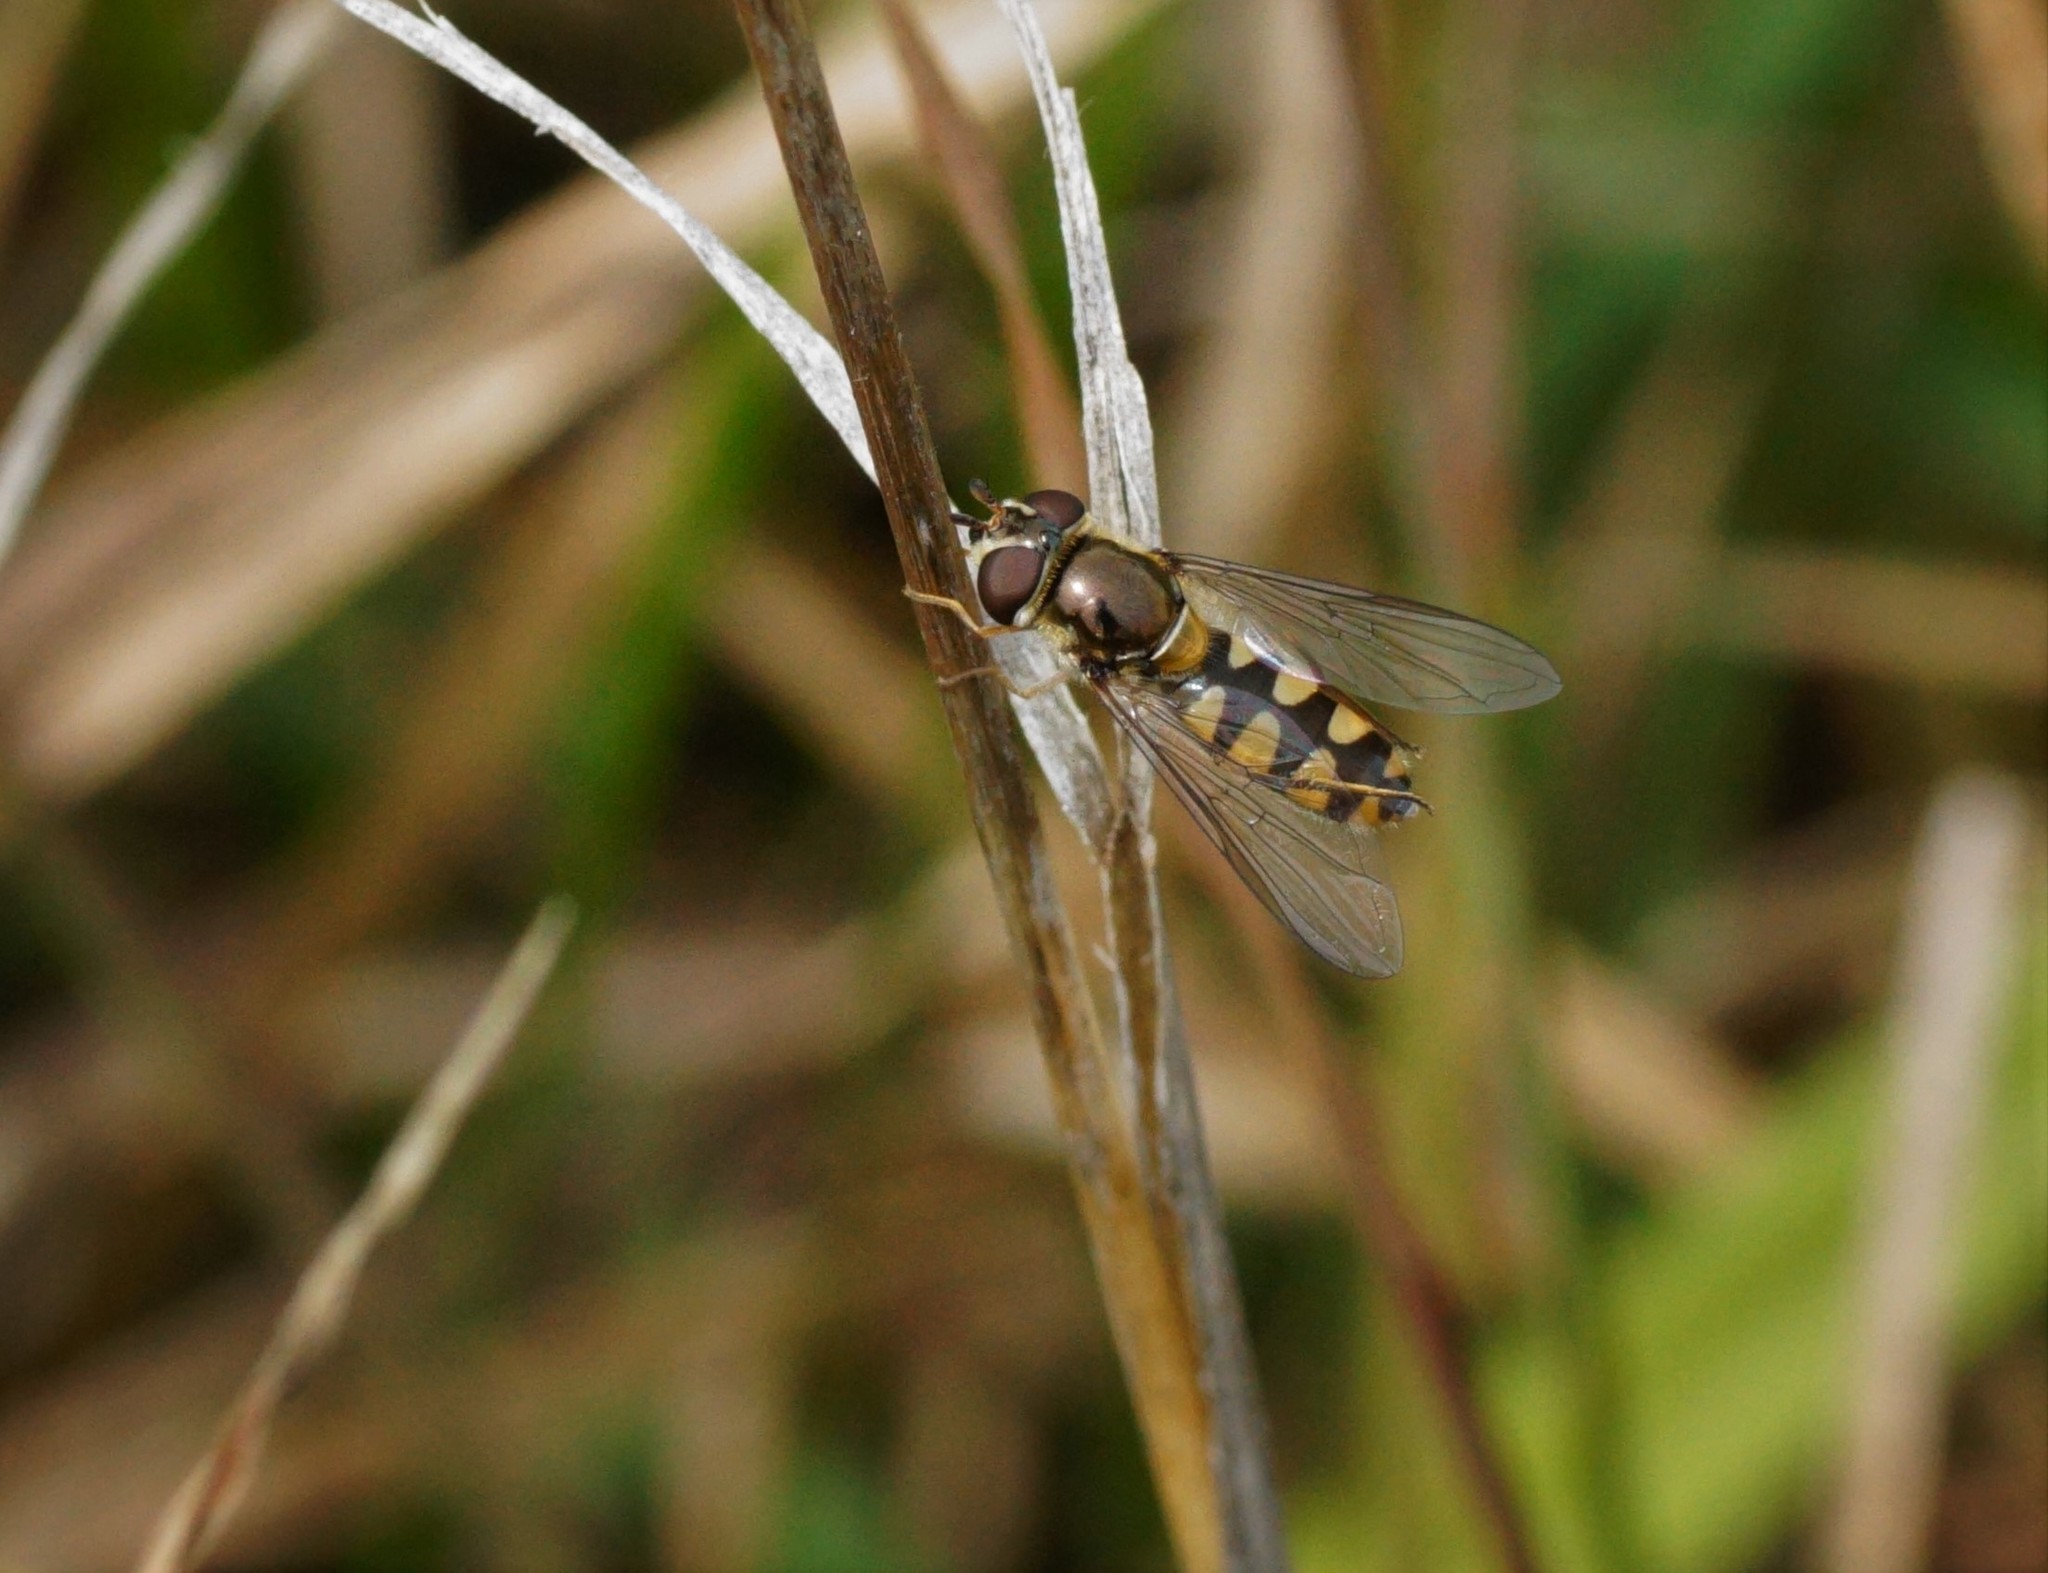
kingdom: Animalia
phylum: Arthropoda
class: Insecta
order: Diptera
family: Syrphidae
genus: Melangyna
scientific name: Melangyna viridiceps
